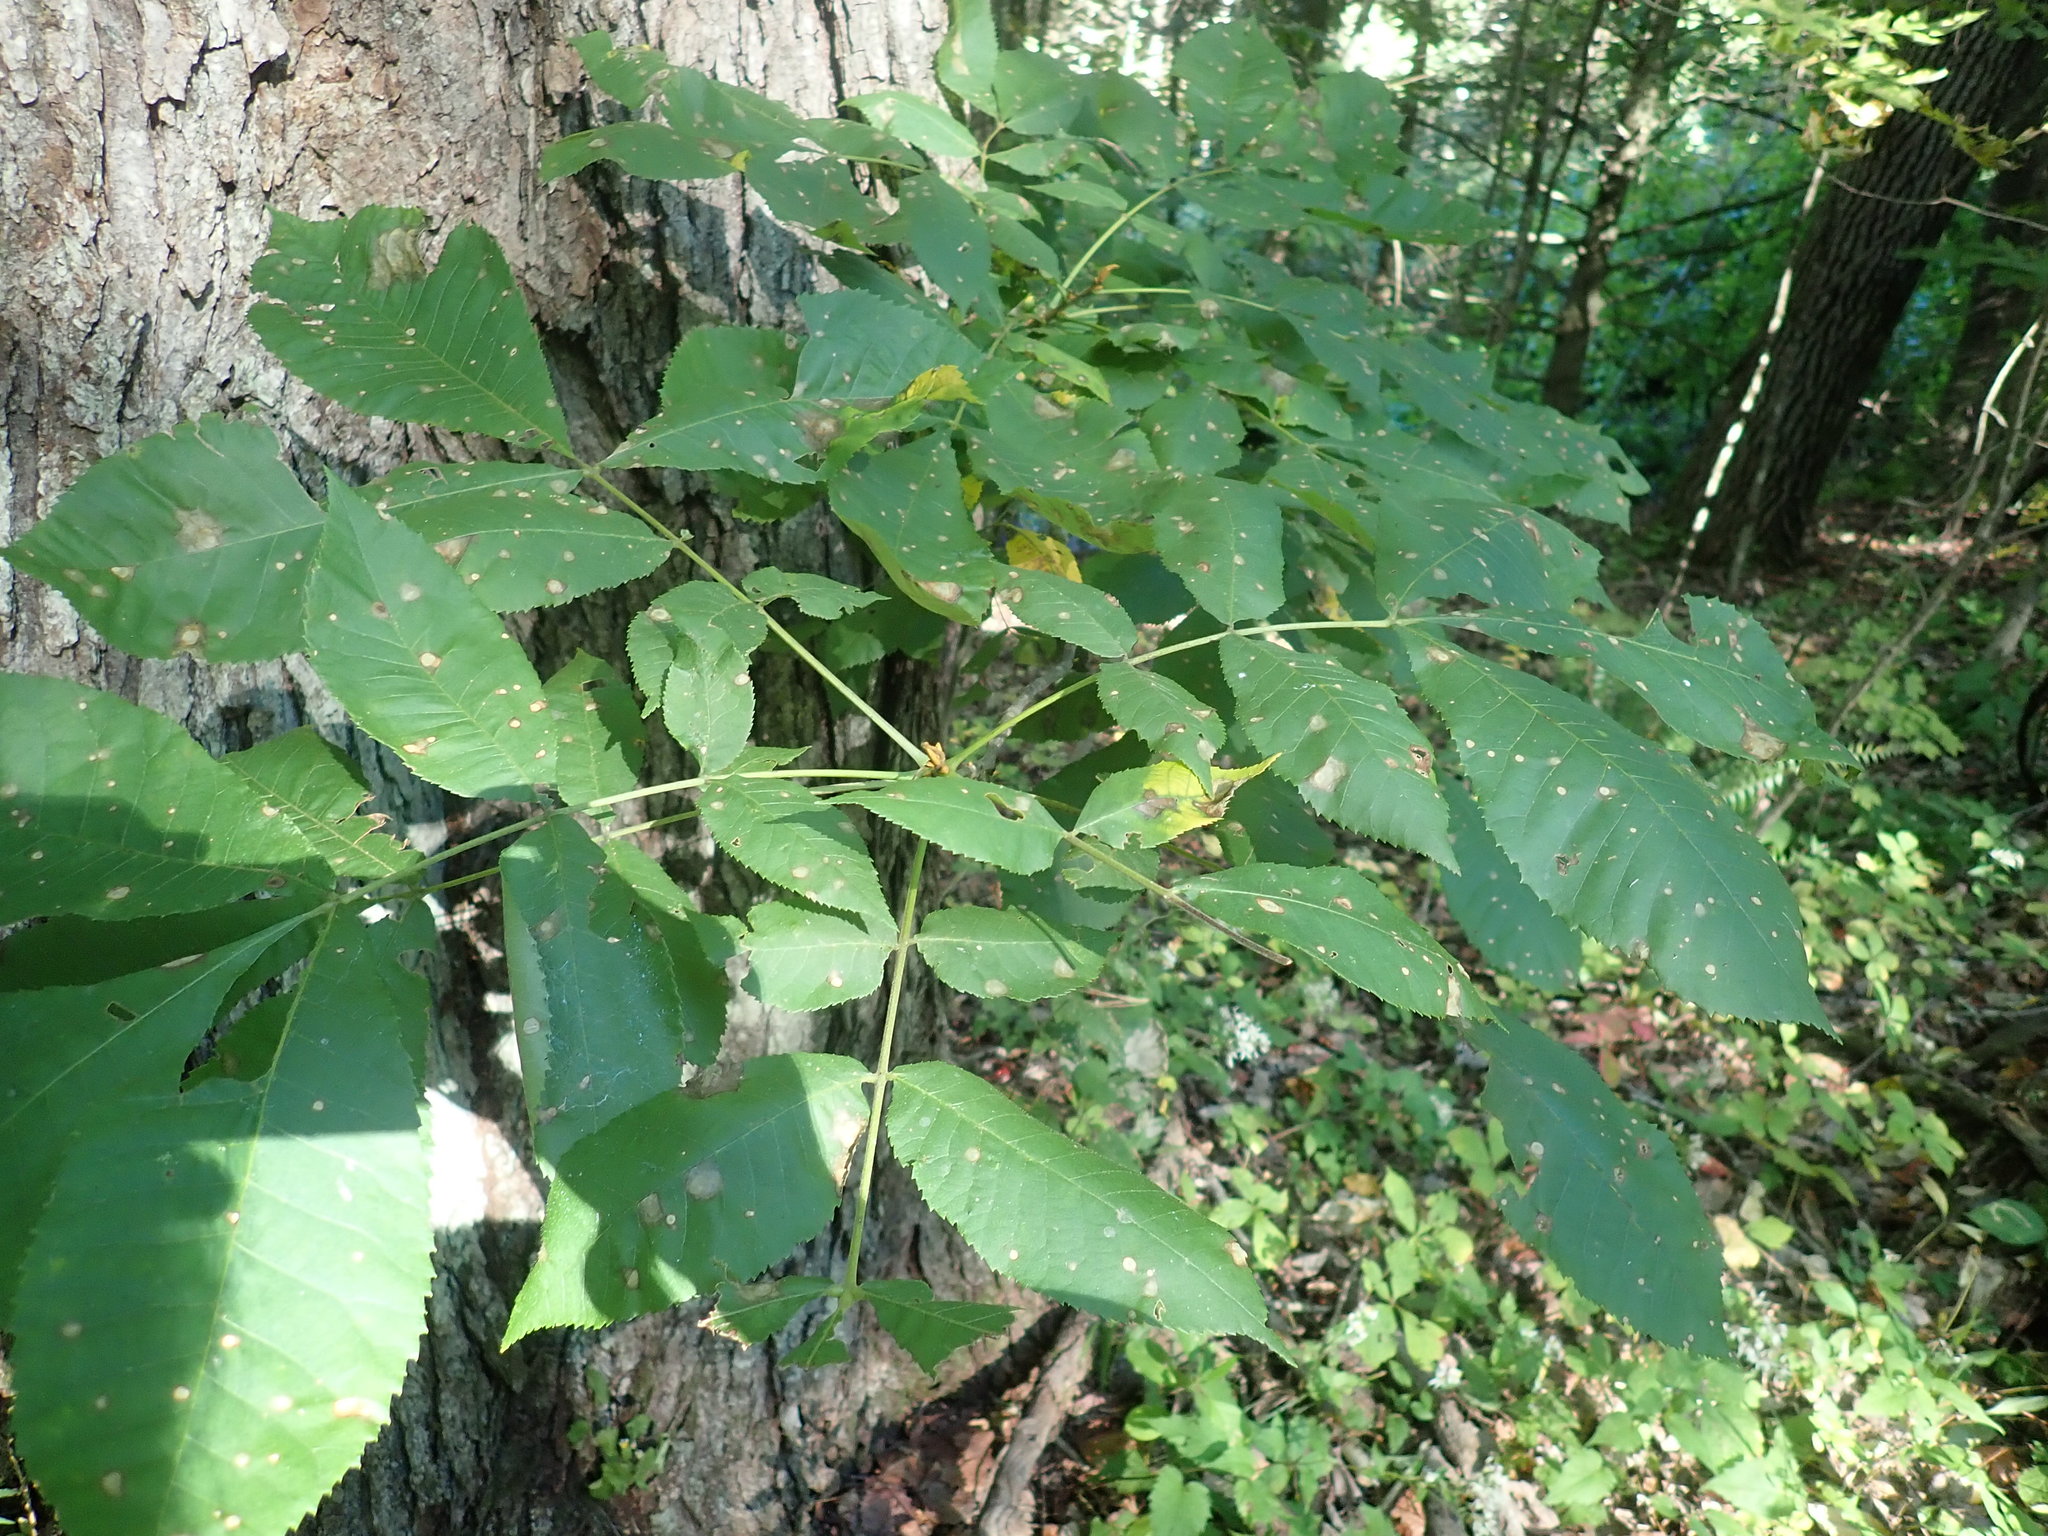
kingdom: Plantae
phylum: Tracheophyta
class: Magnoliopsida
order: Fagales
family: Juglandaceae
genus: Carya
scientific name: Carya cordiformis
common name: Bitternut hickory
